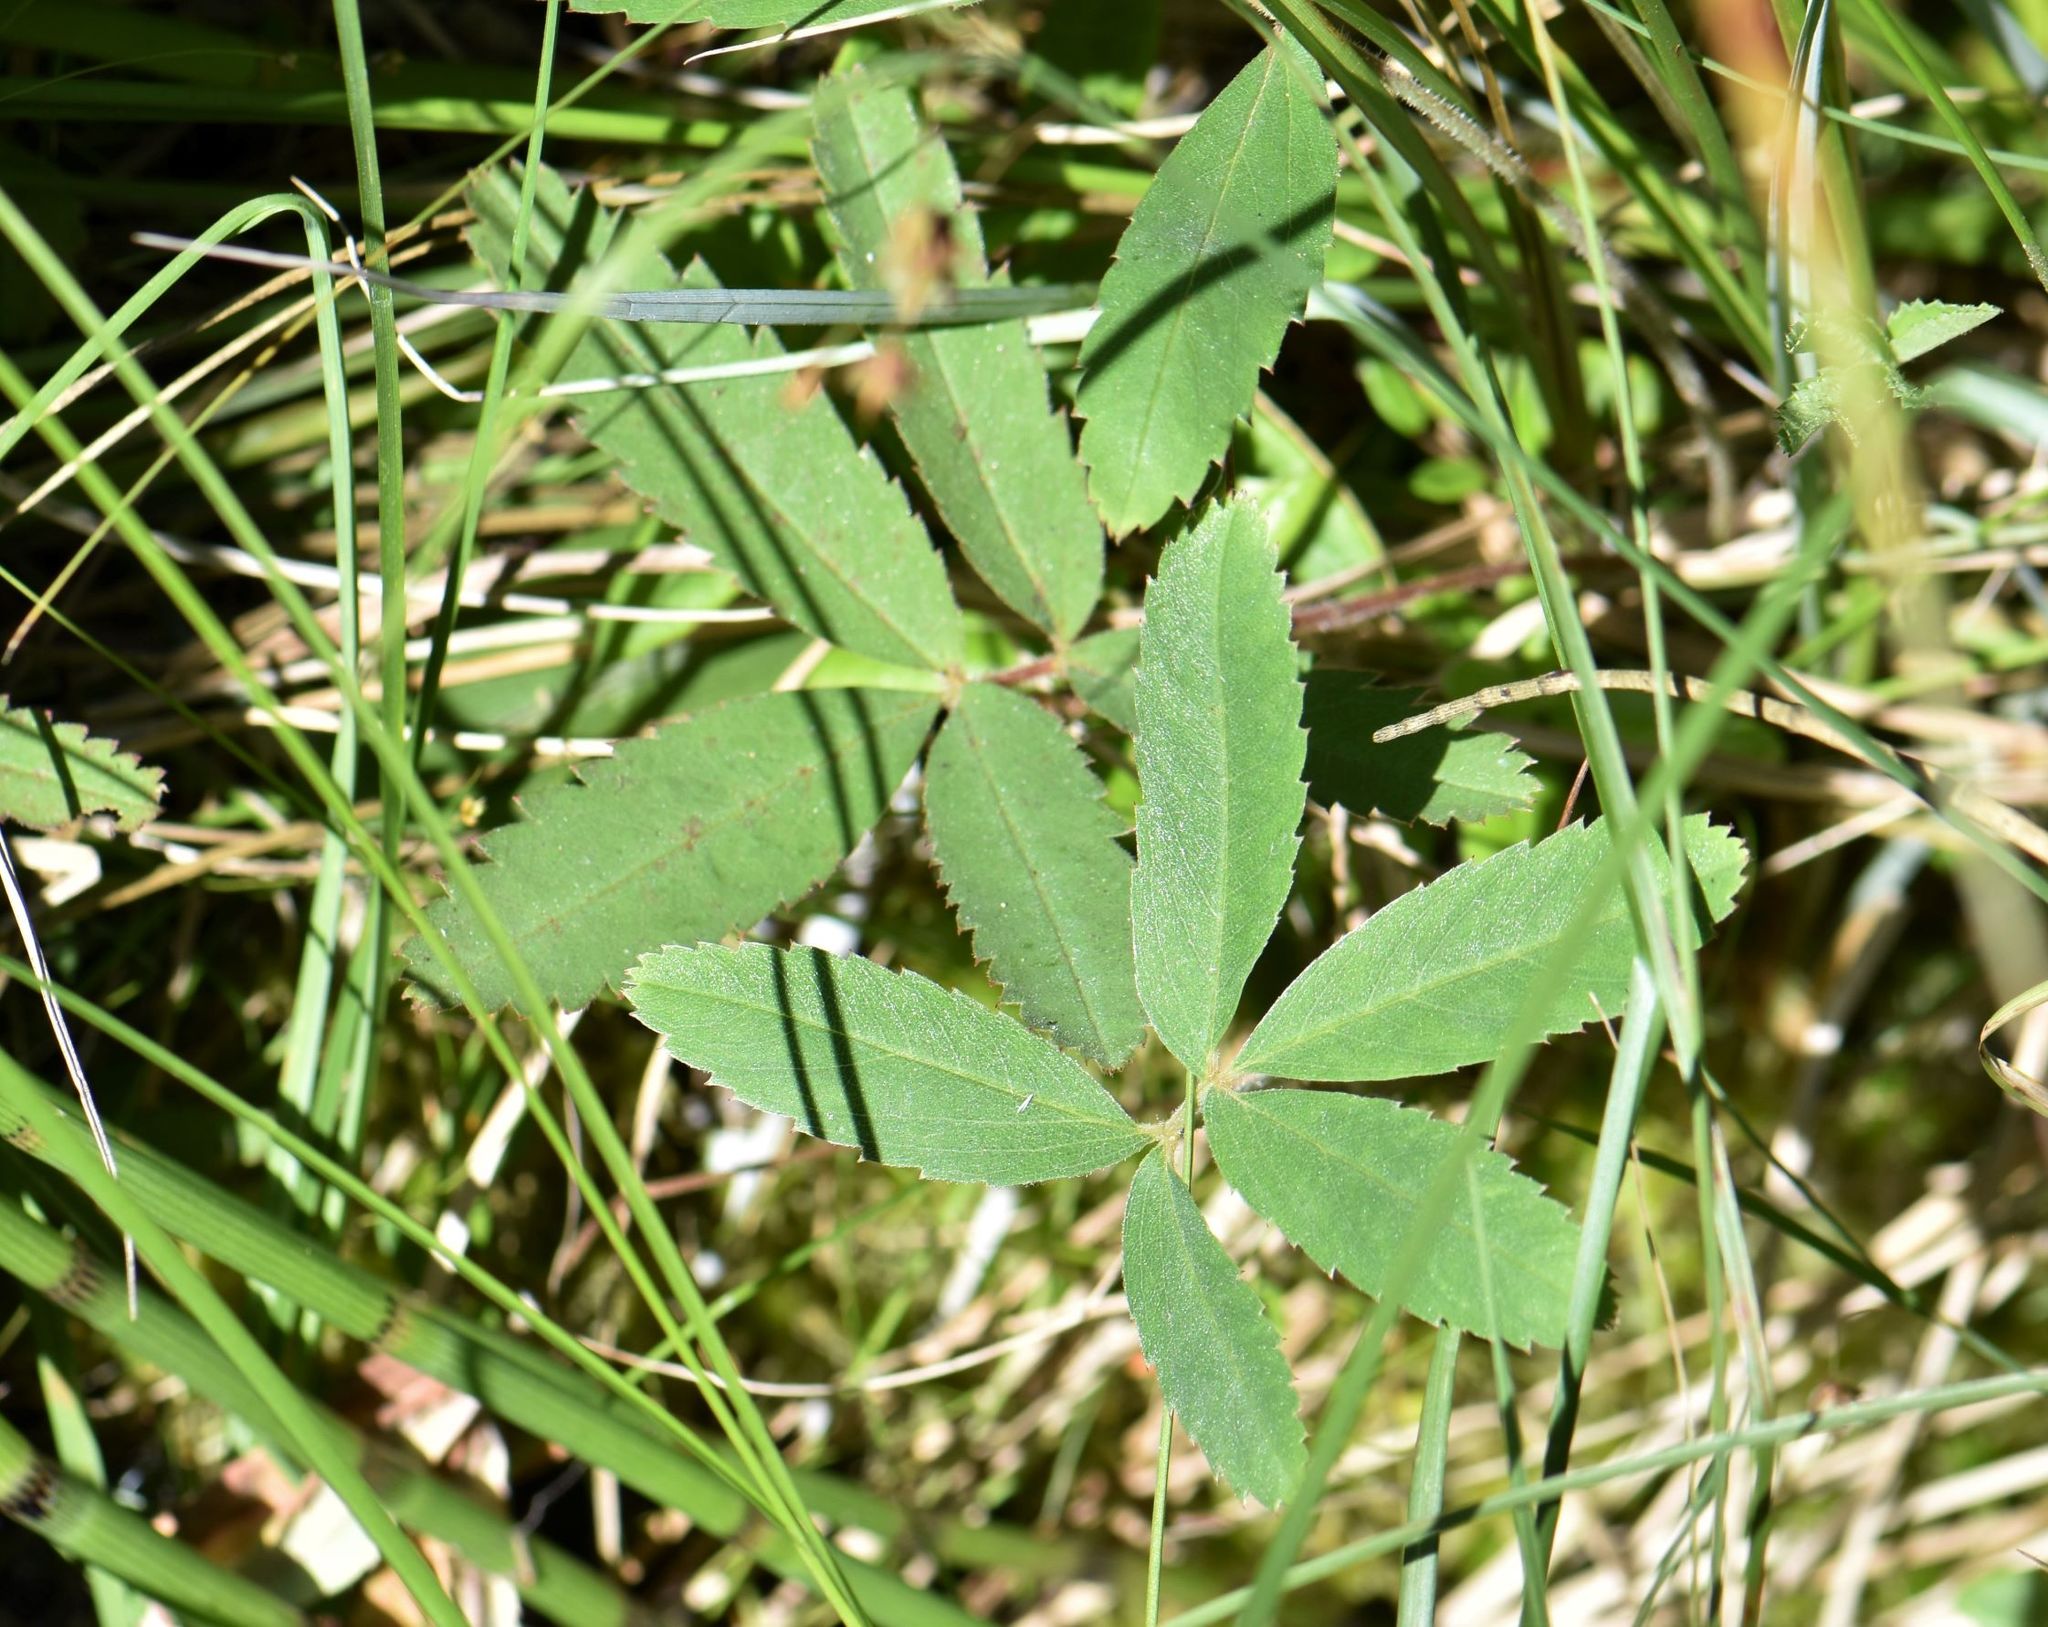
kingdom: Plantae
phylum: Tracheophyta
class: Magnoliopsida
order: Rosales
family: Rosaceae
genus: Comarum
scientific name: Comarum palustre
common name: Marsh cinquefoil
